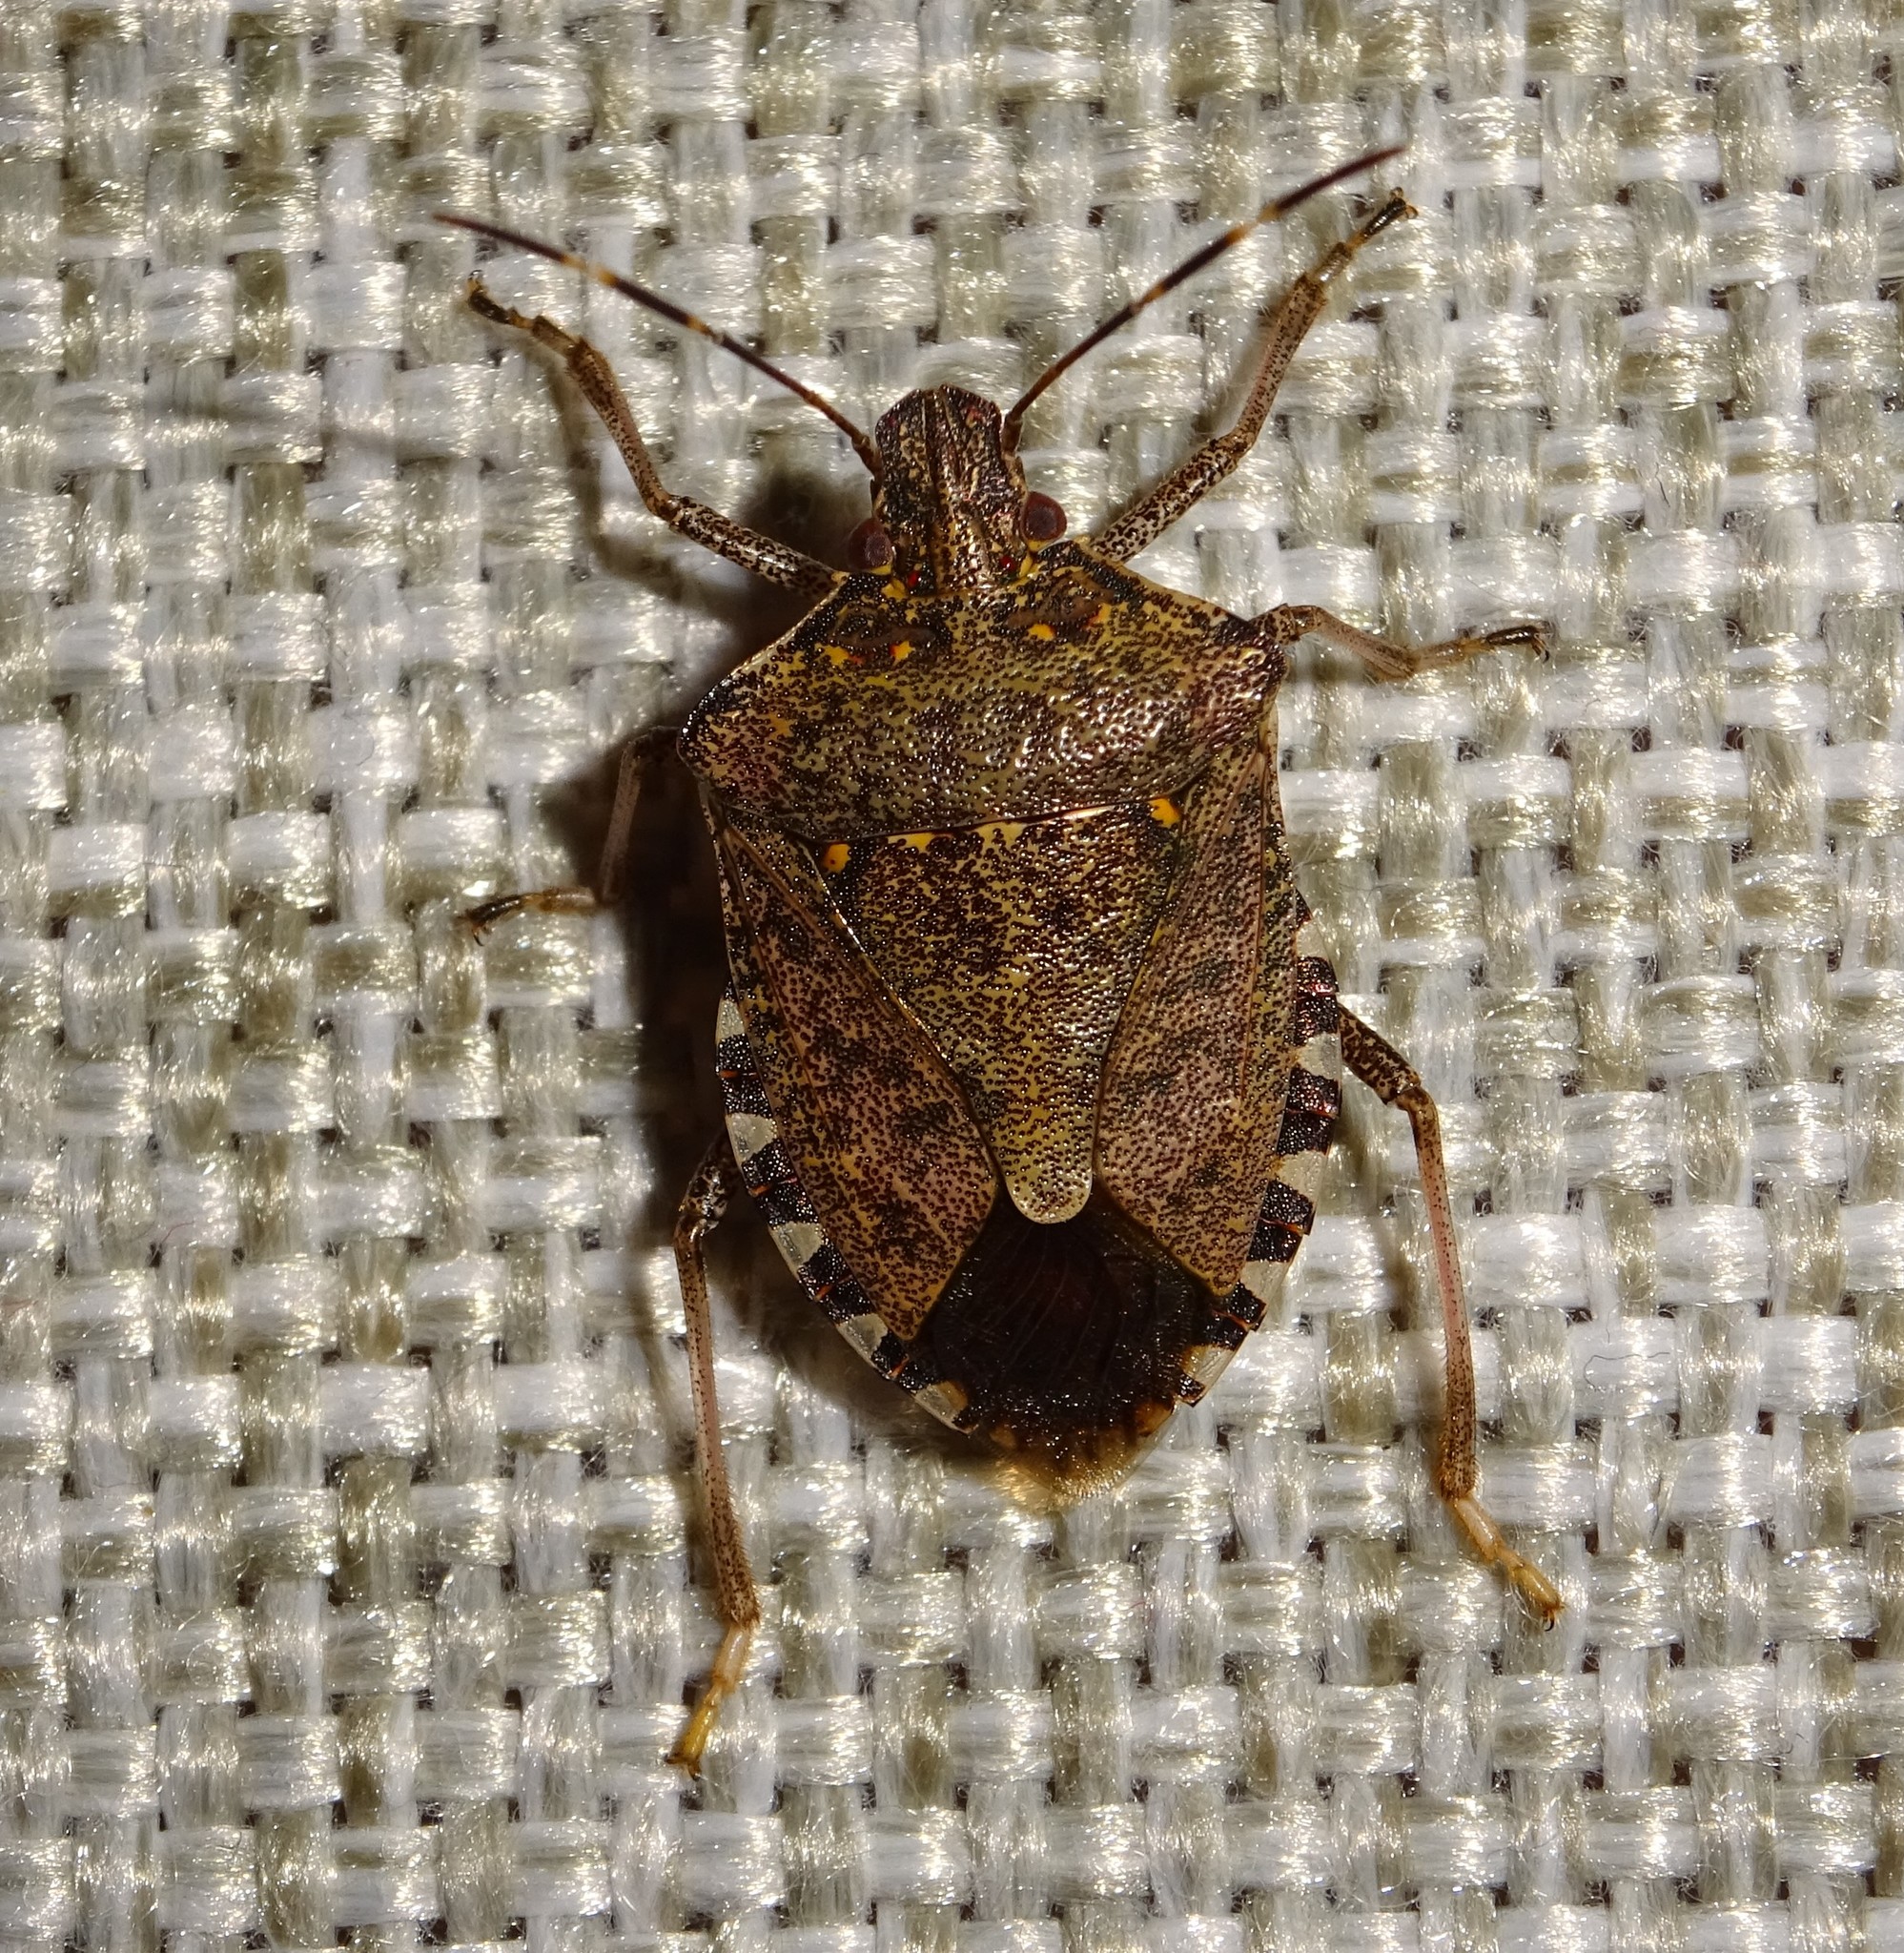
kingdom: Animalia
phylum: Arthropoda
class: Insecta
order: Hemiptera
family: Pentatomidae
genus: Halyomorpha
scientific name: Halyomorpha halys
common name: Brown marmorated stink bug
